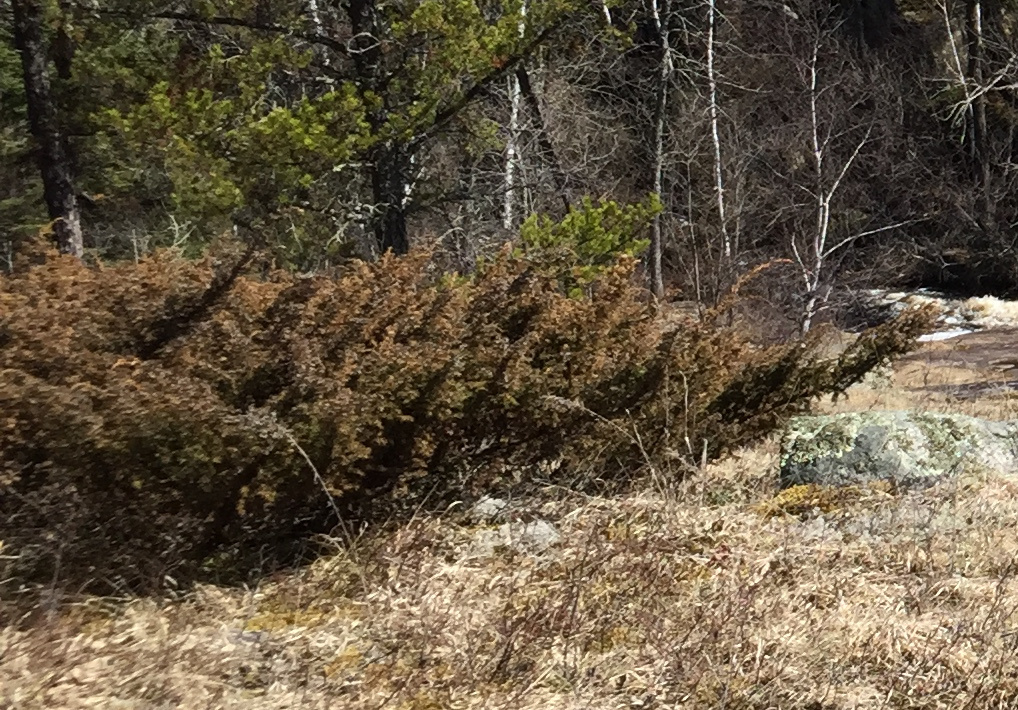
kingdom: Plantae
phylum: Tracheophyta
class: Pinopsida
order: Pinales
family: Cupressaceae
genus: Juniperus
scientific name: Juniperus communis
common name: Common juniper
